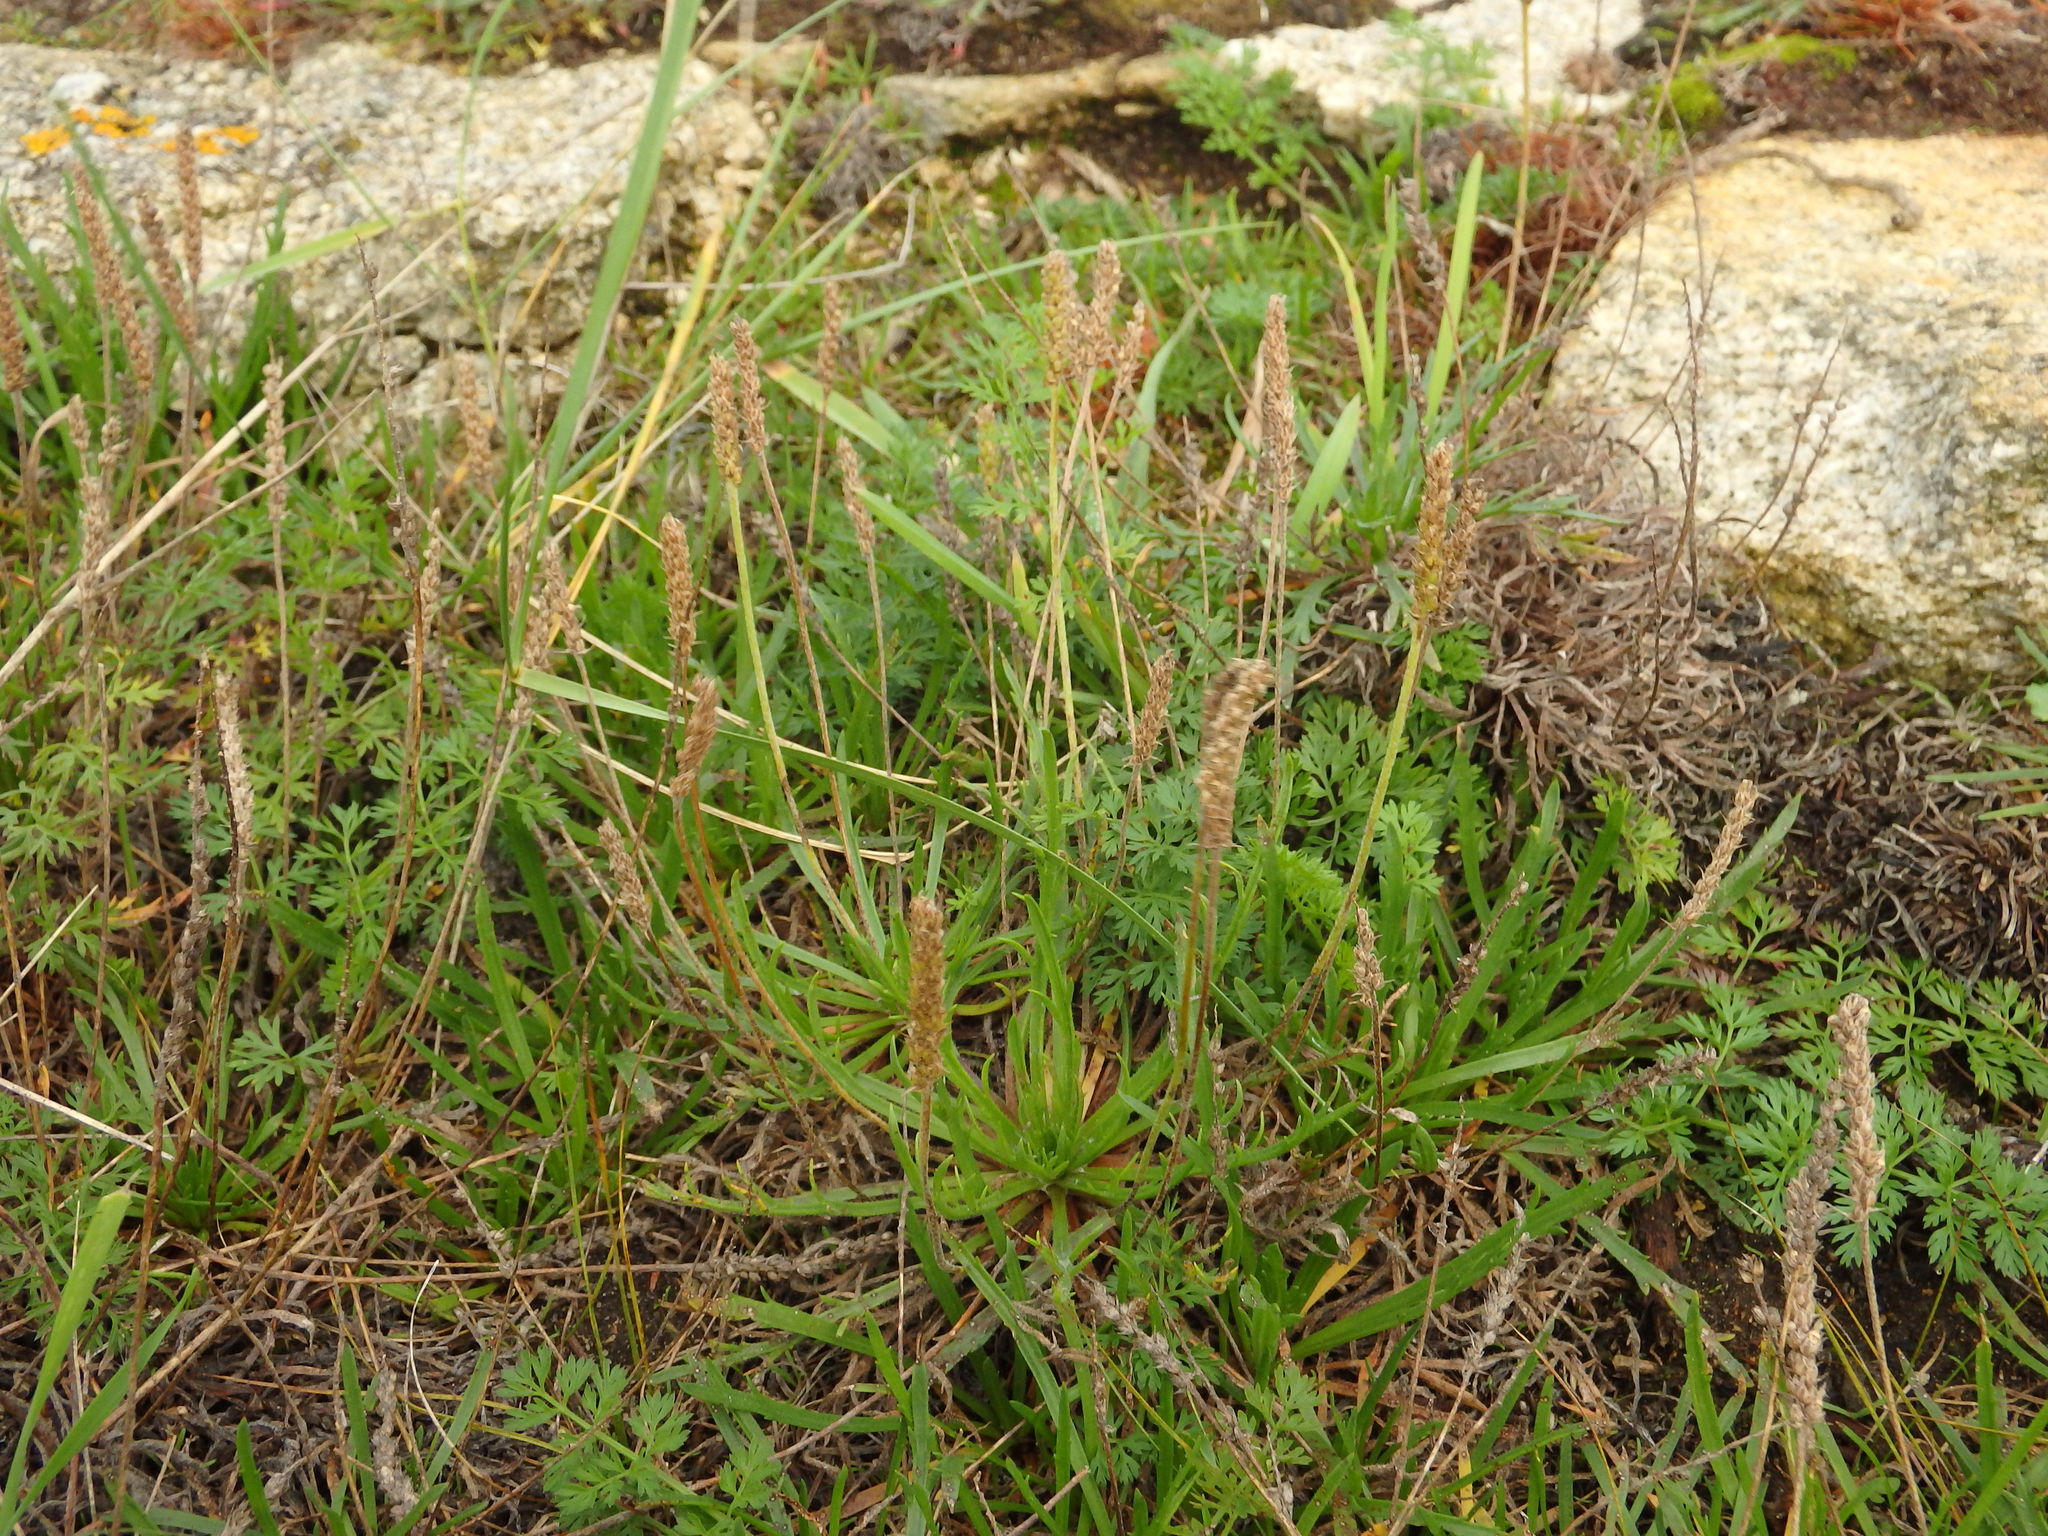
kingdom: Plantae
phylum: Tracheophyta
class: Magnoliopsida
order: Lamiales
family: Plantaginaceae
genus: Plantago
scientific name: Plantago coronopus
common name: Buck's-horn plantain
